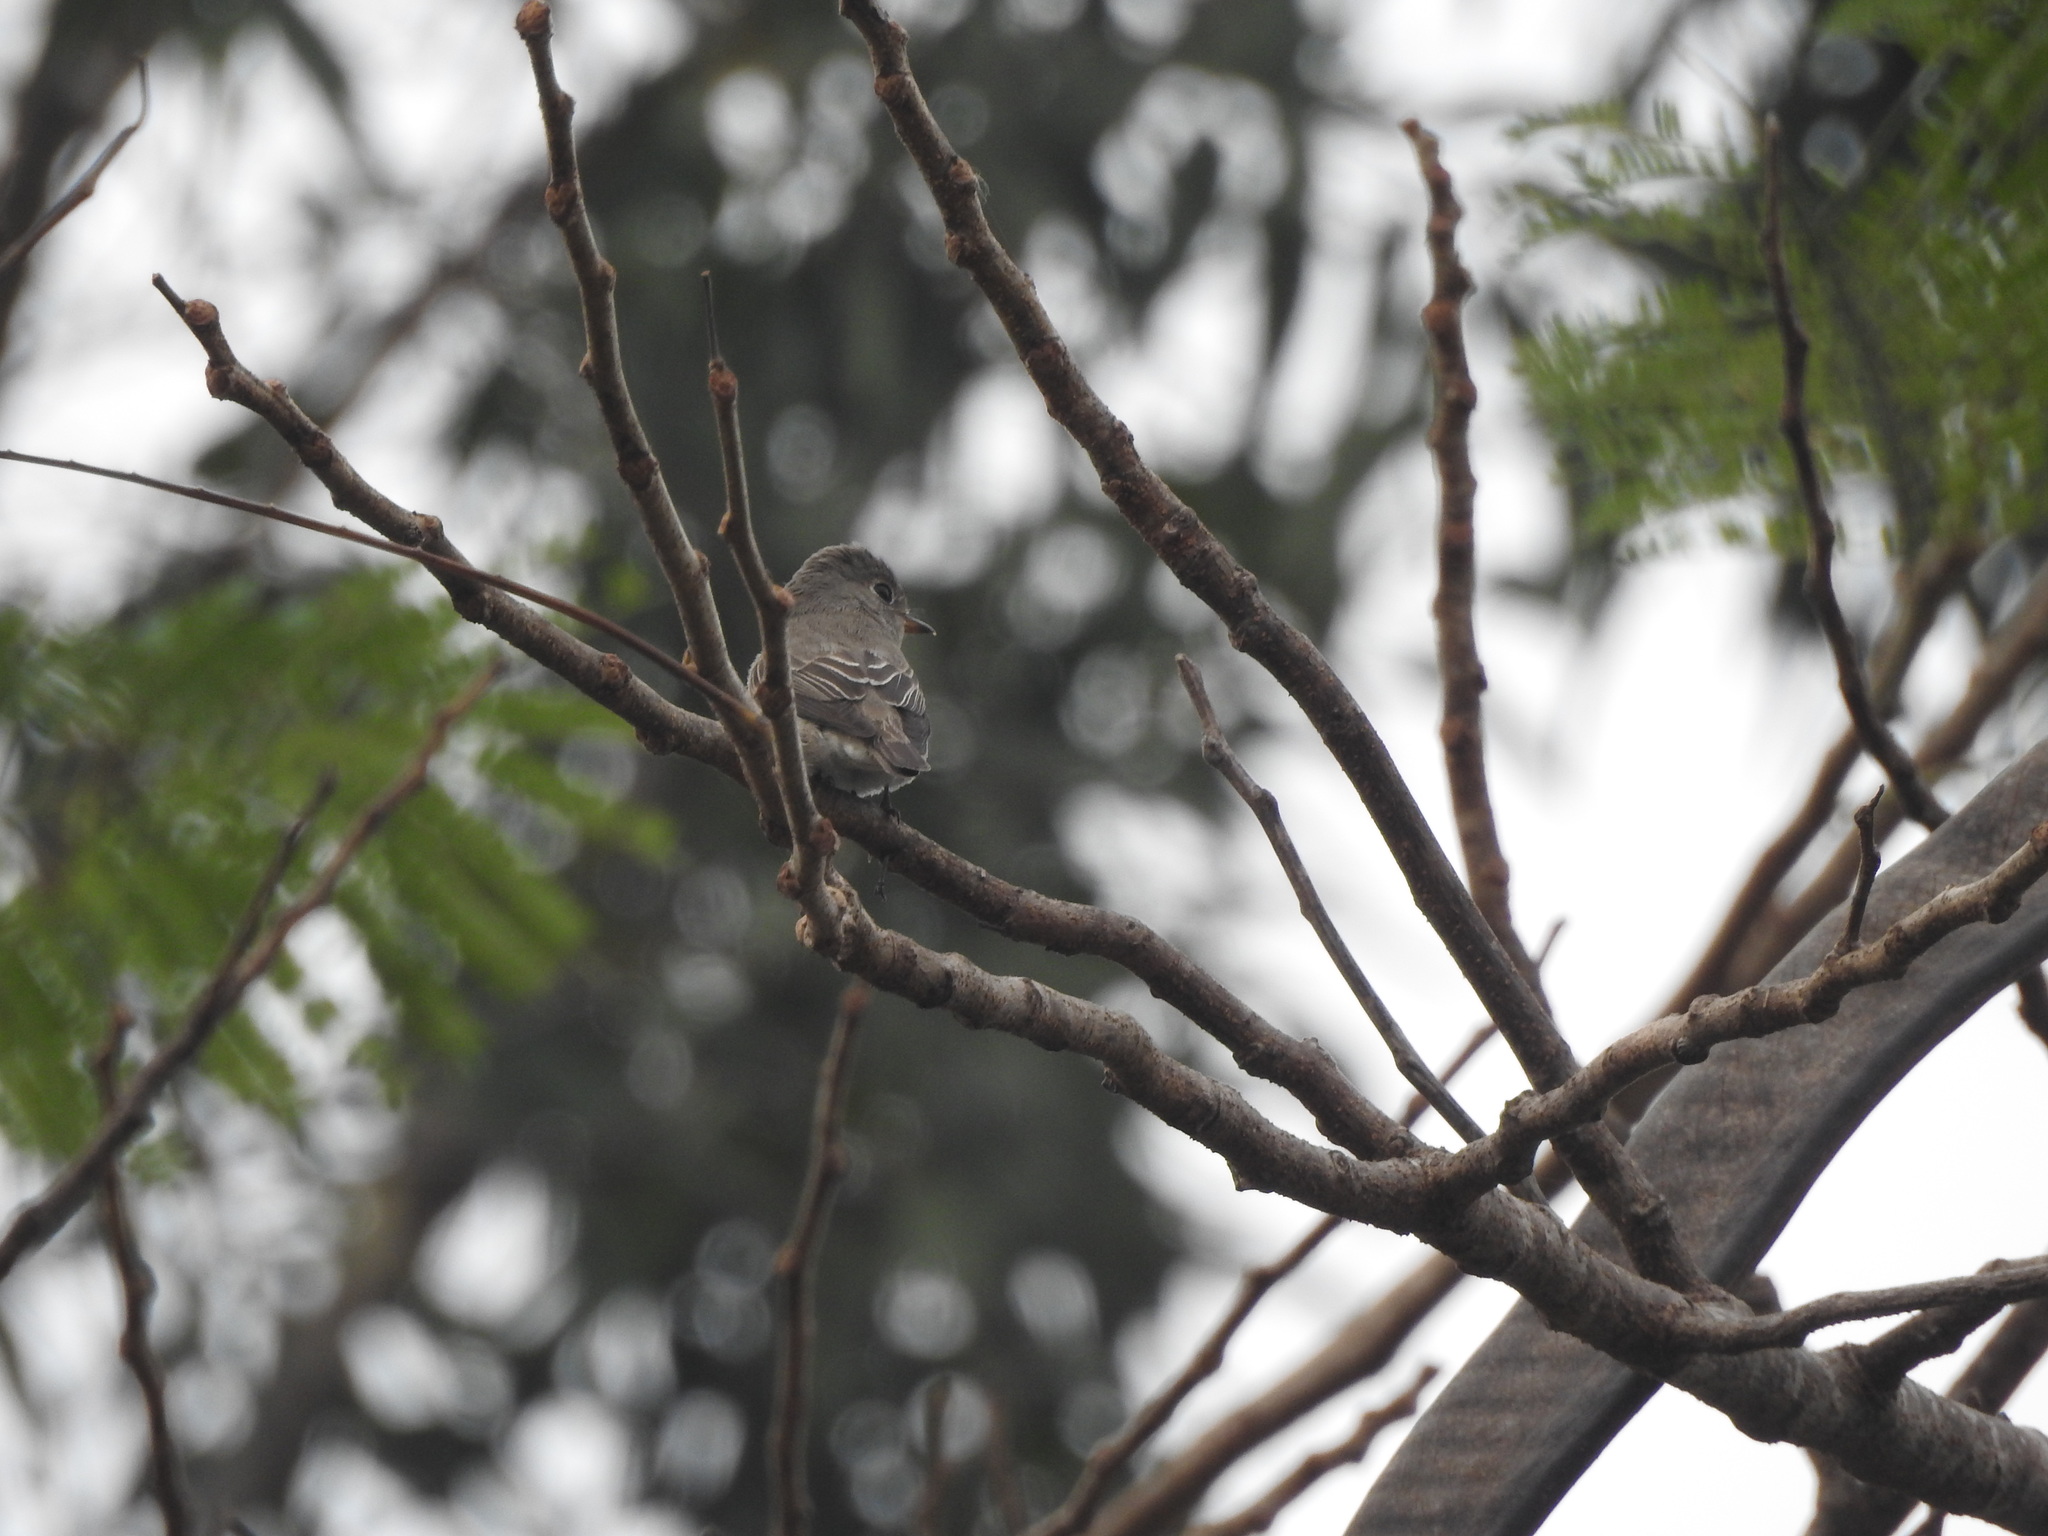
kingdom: Animalia
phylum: Chordata
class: Aves
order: Passeriformes
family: Muscicapidae
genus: Muscicapa
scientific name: Muscicapa latirostris
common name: Asian brown flycatcher
